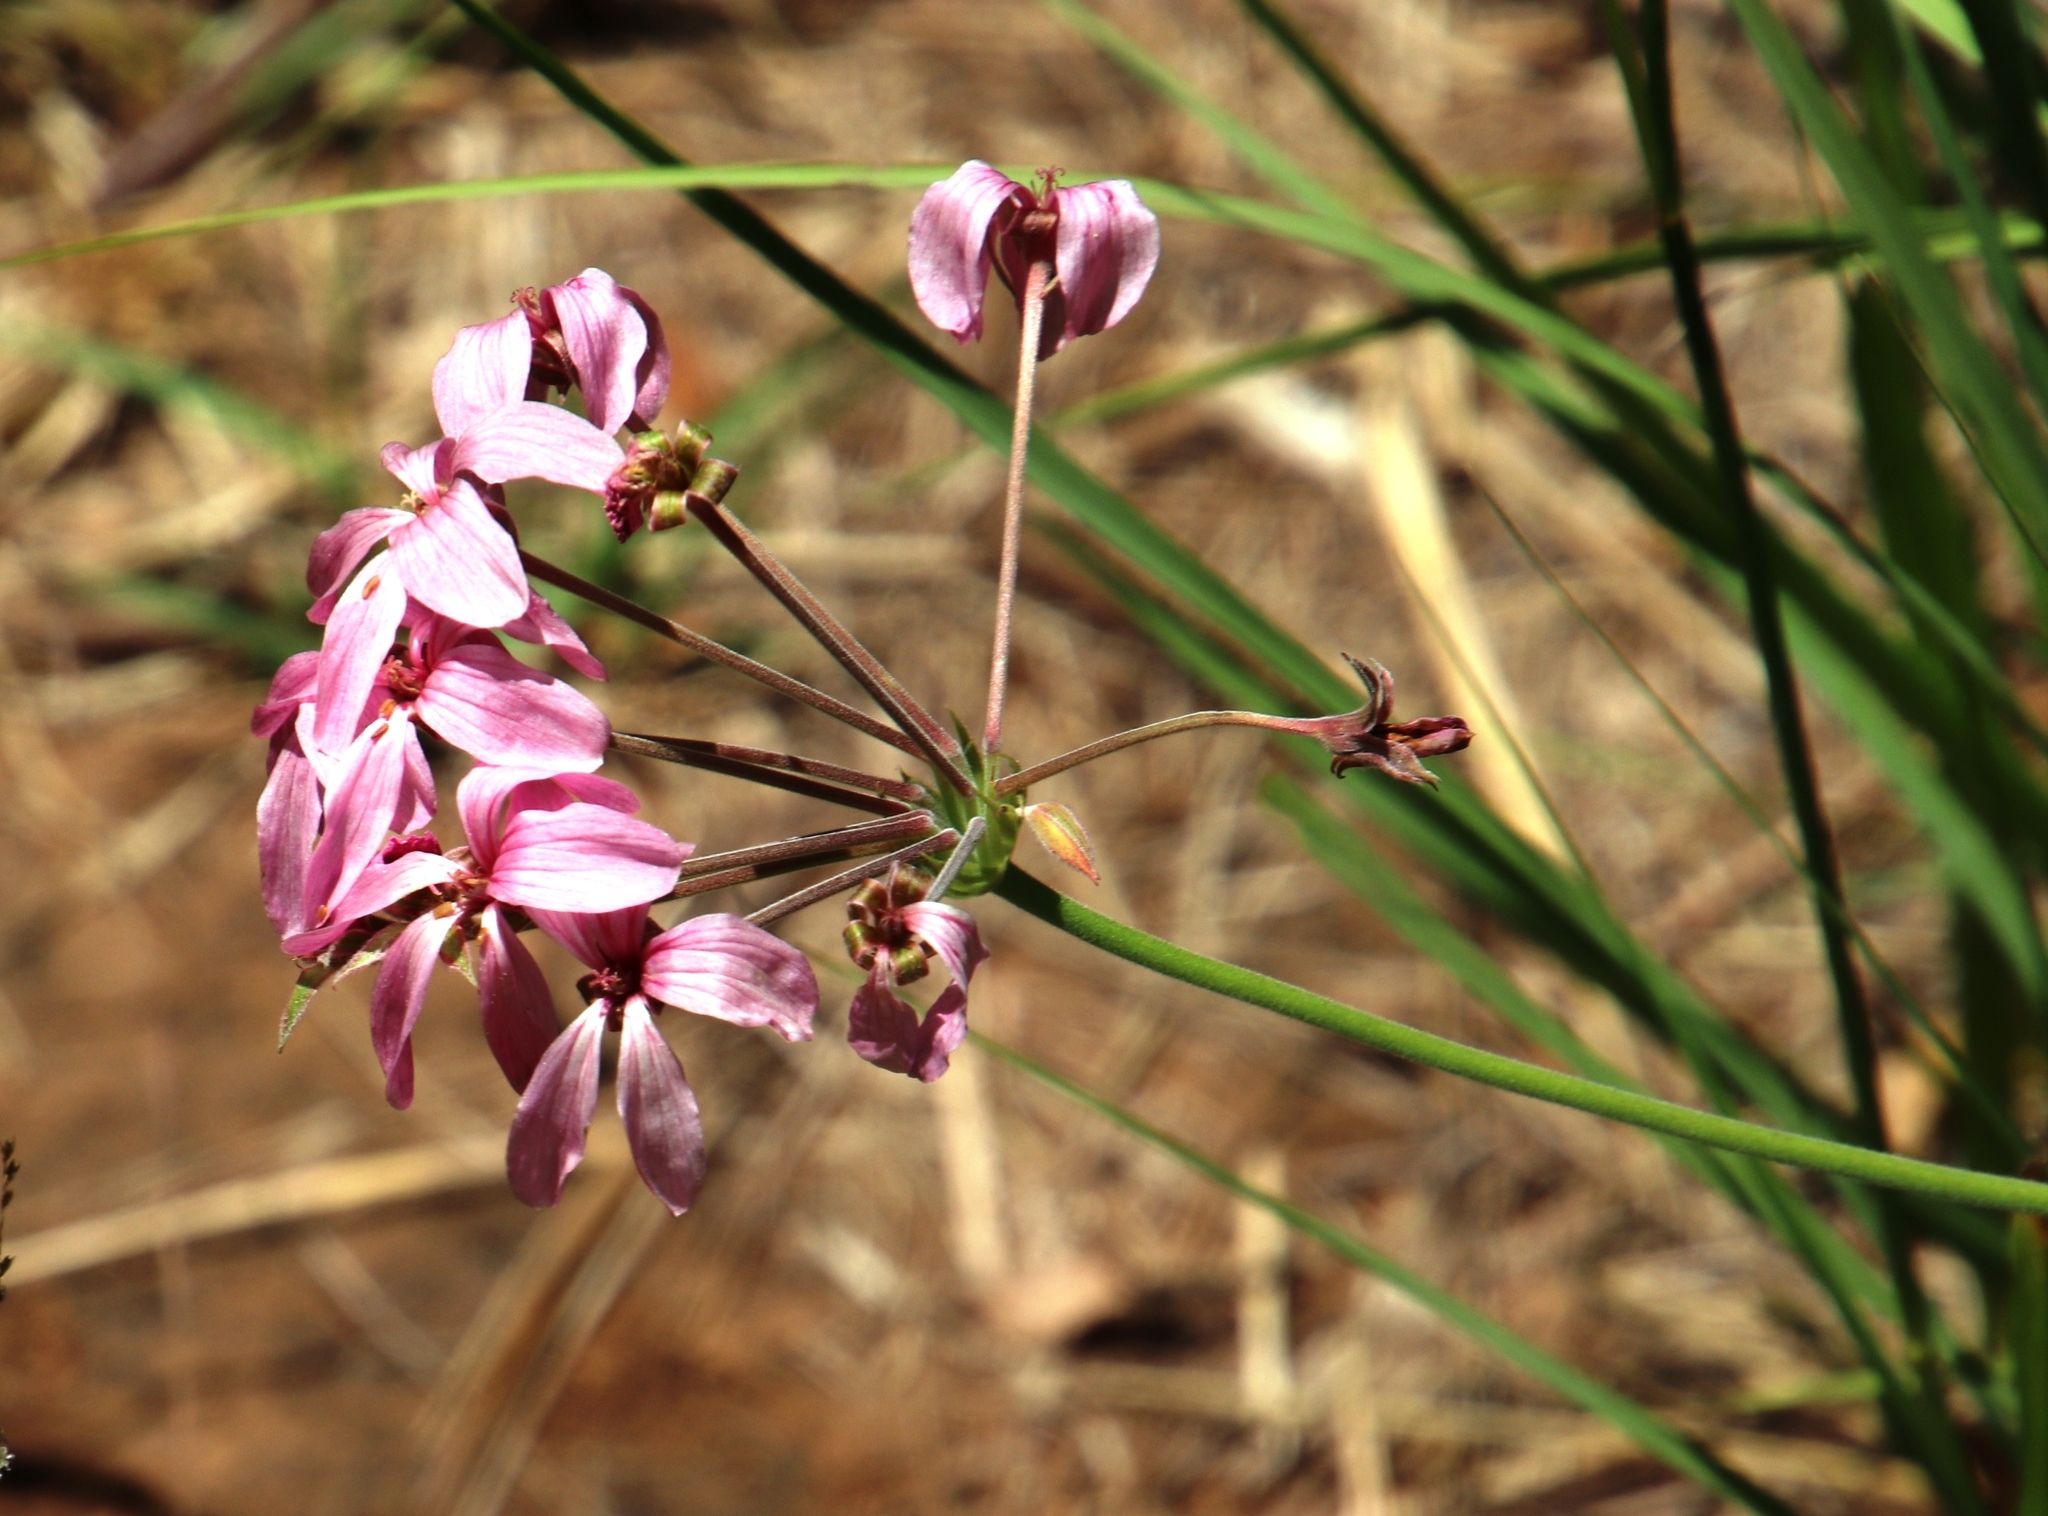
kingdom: Plantae
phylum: Tracheophyta
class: Magnoliopsida
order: Geraniales
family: Geraniaceae
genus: Pelargonium
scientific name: Pelargonium luridum
